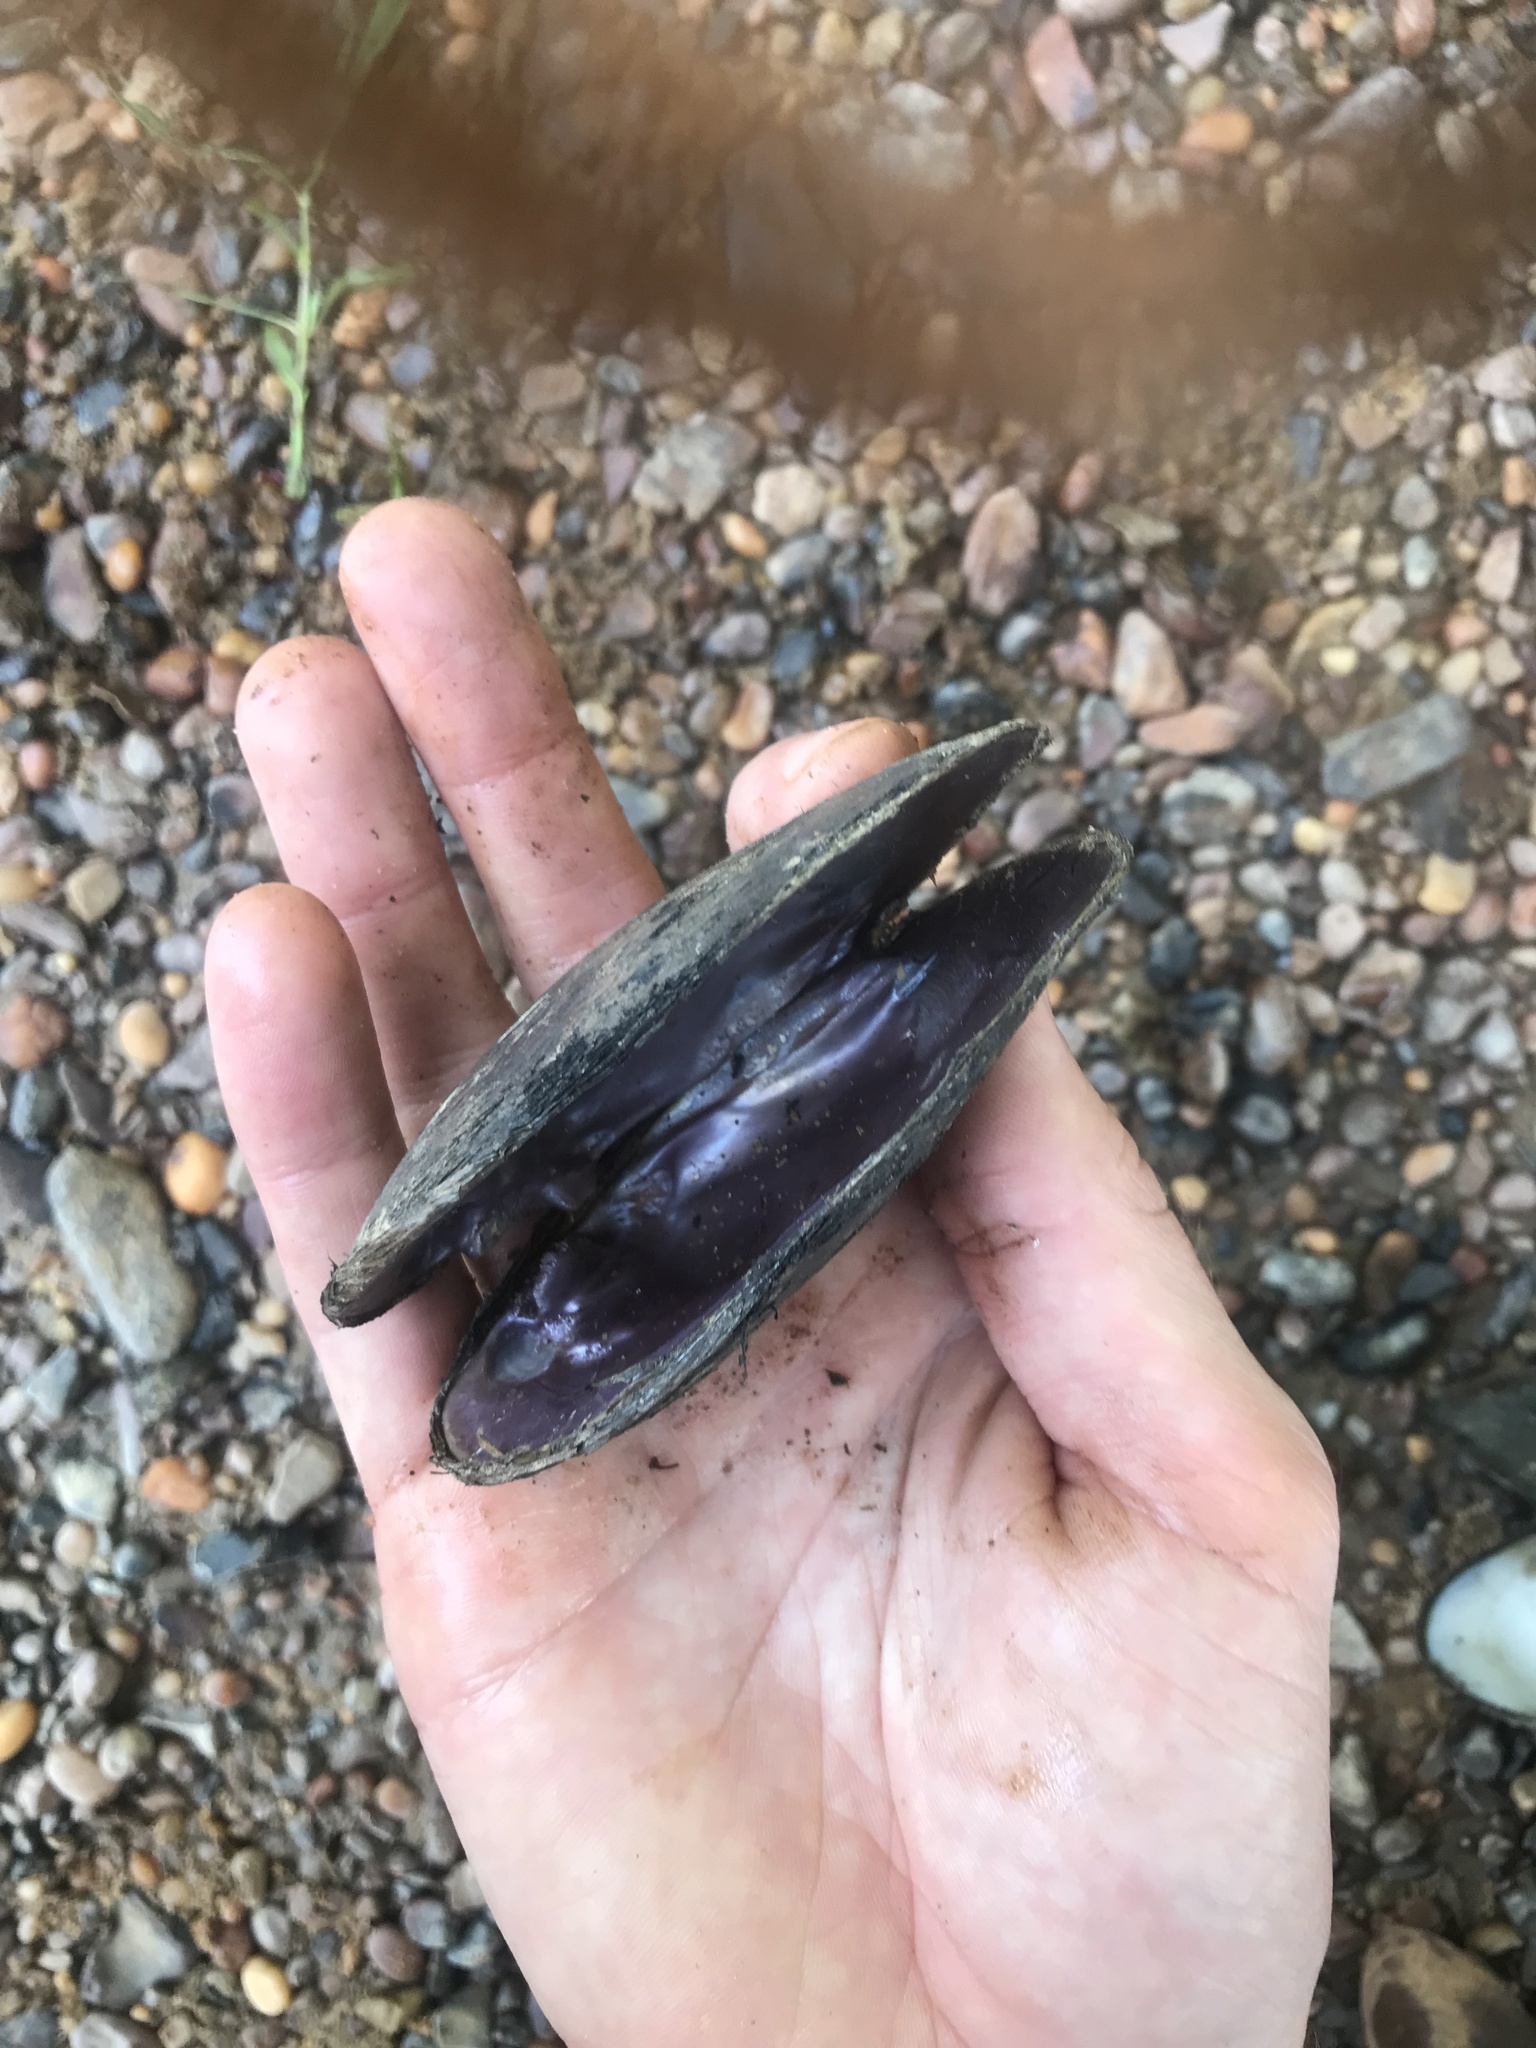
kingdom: Animalia
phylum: Mollusca
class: Bivalvia
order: Unionida
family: Unionidae
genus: Elliptio
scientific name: Elliptio arca
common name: Alabama spike
